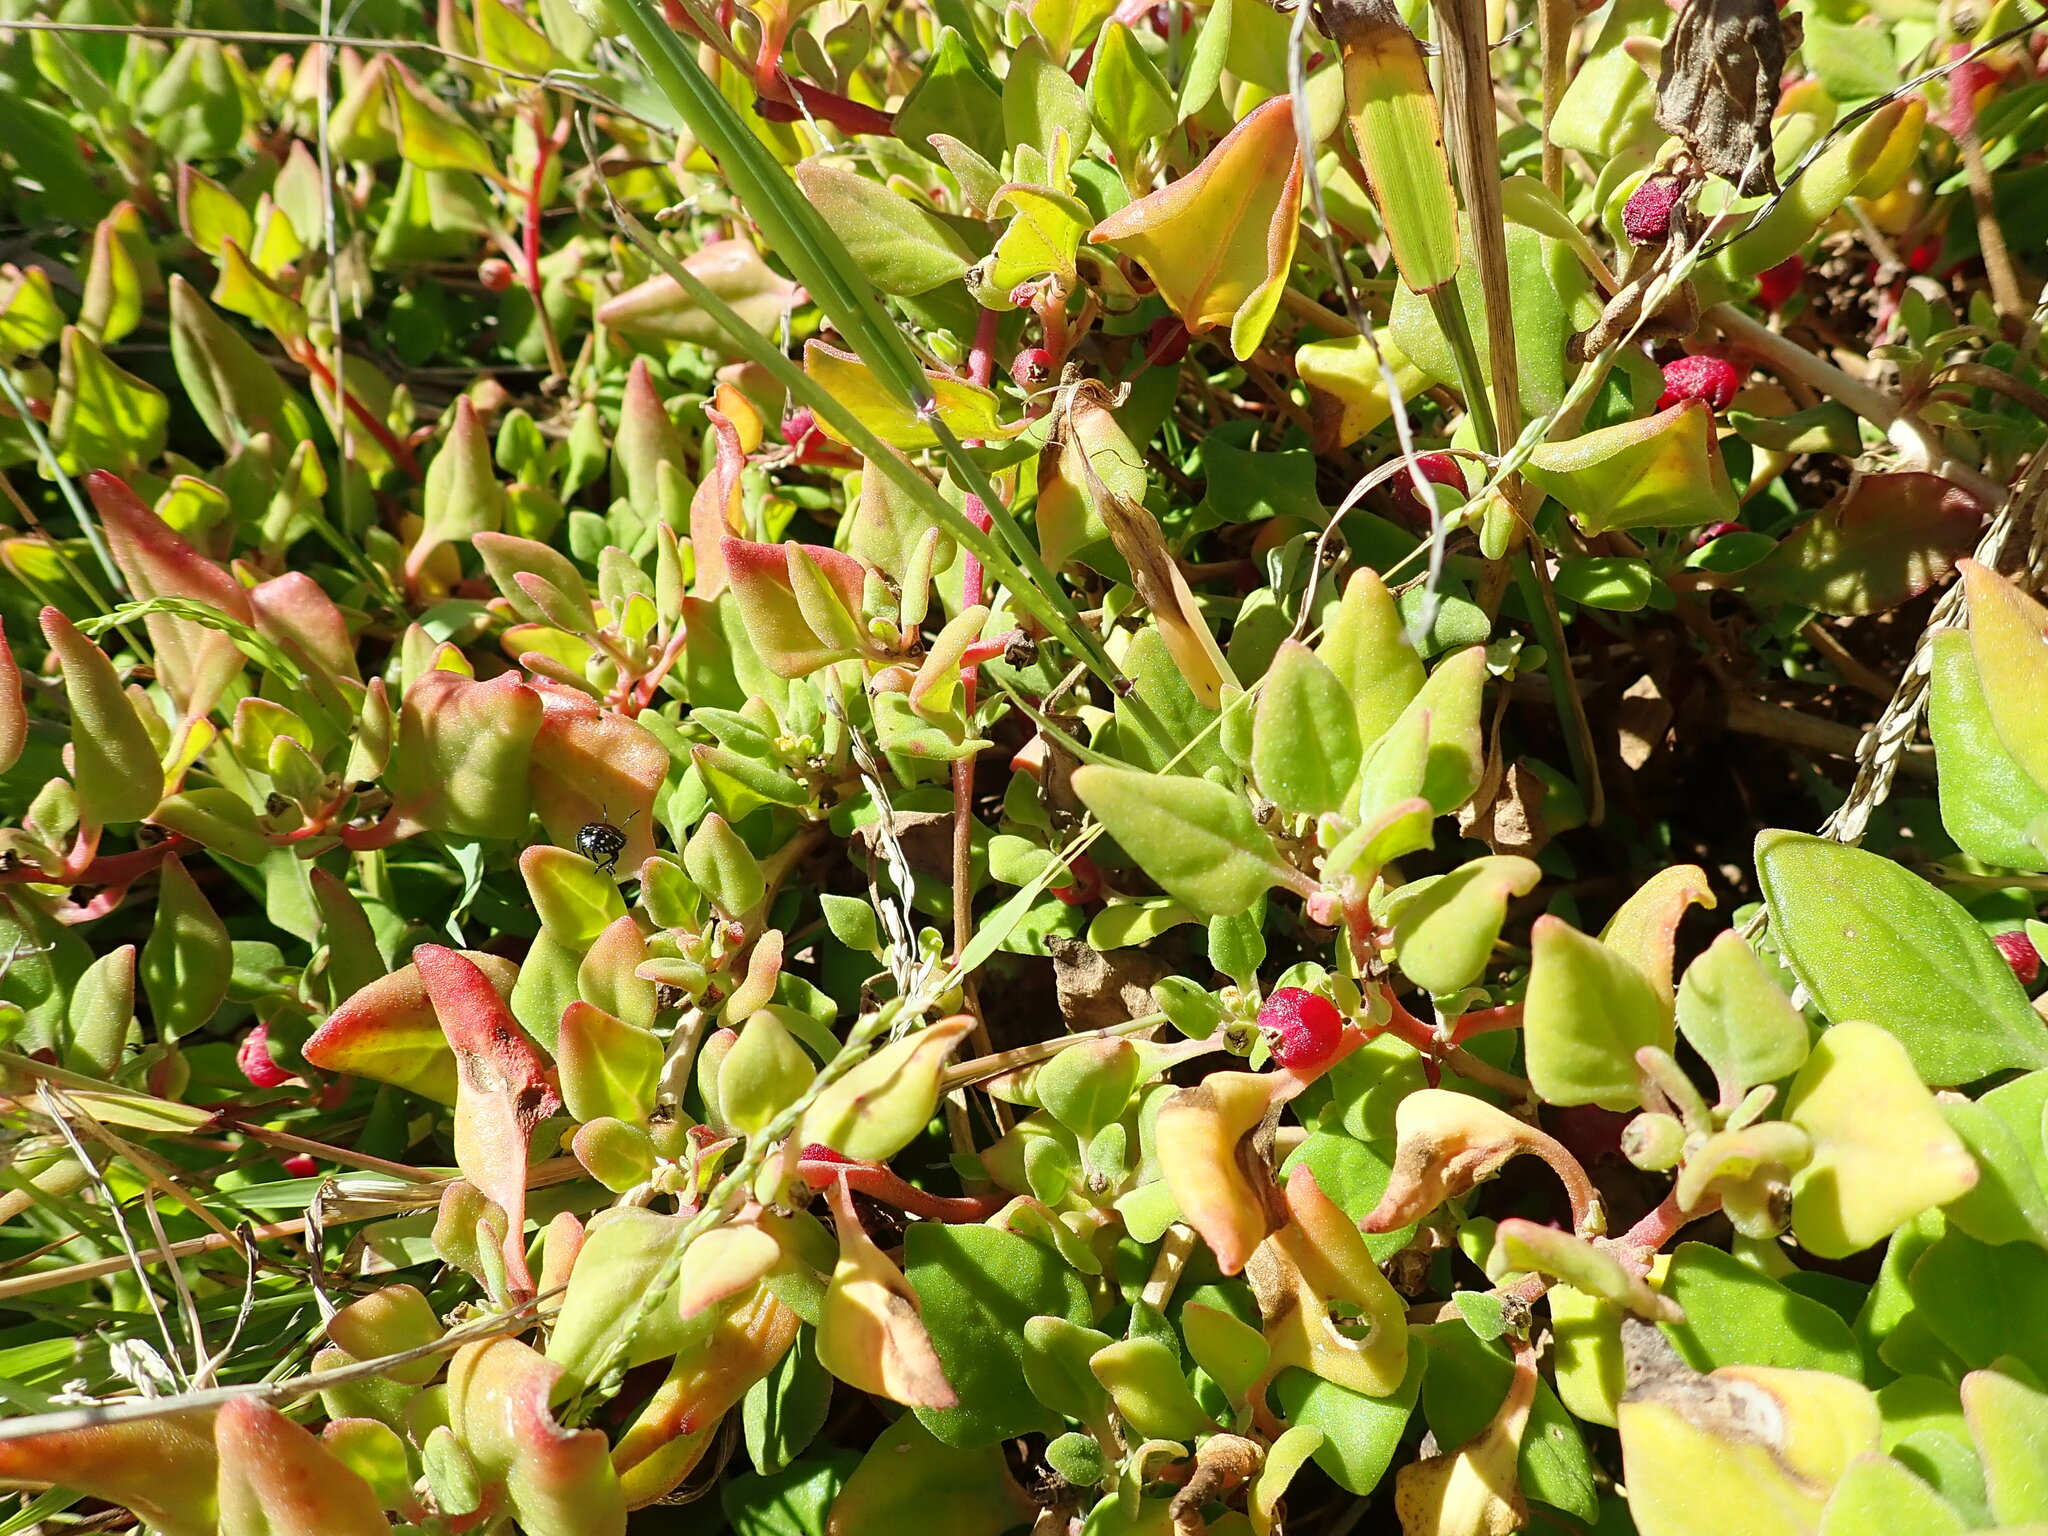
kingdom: Plantae
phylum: Tracheophyta
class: Magnoliopsida
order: Caryophyllales
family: Aizoaceae
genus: Tetragonia
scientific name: Tetragonia implexicoma
